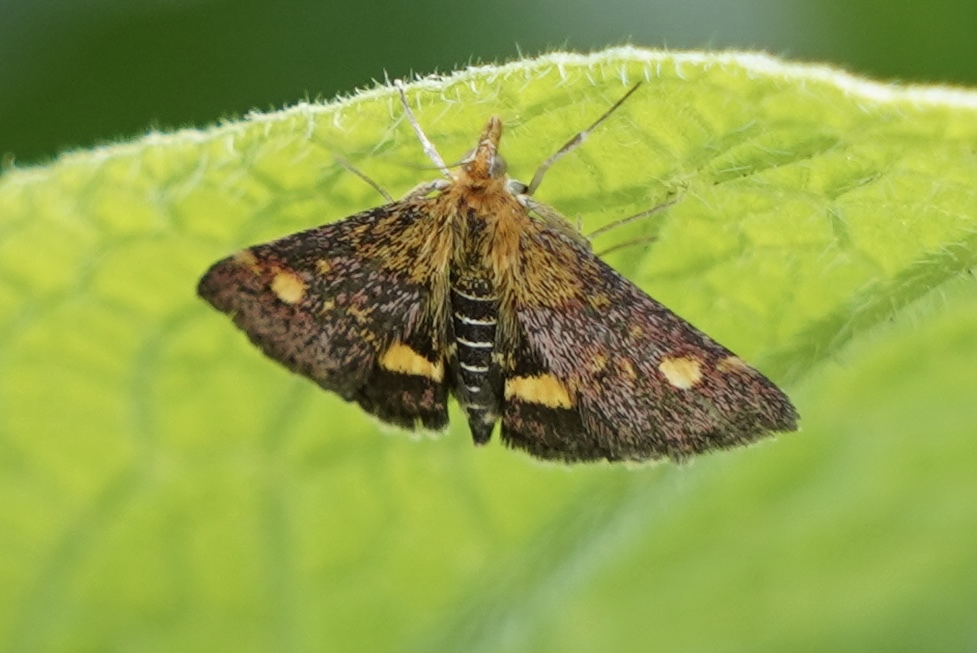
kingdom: Animalia
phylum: Arthropoda
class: Insecta
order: Lepidoptera
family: Crambidae
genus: Pyrausta
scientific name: Pyrausta aurata
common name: Small purple & gold
